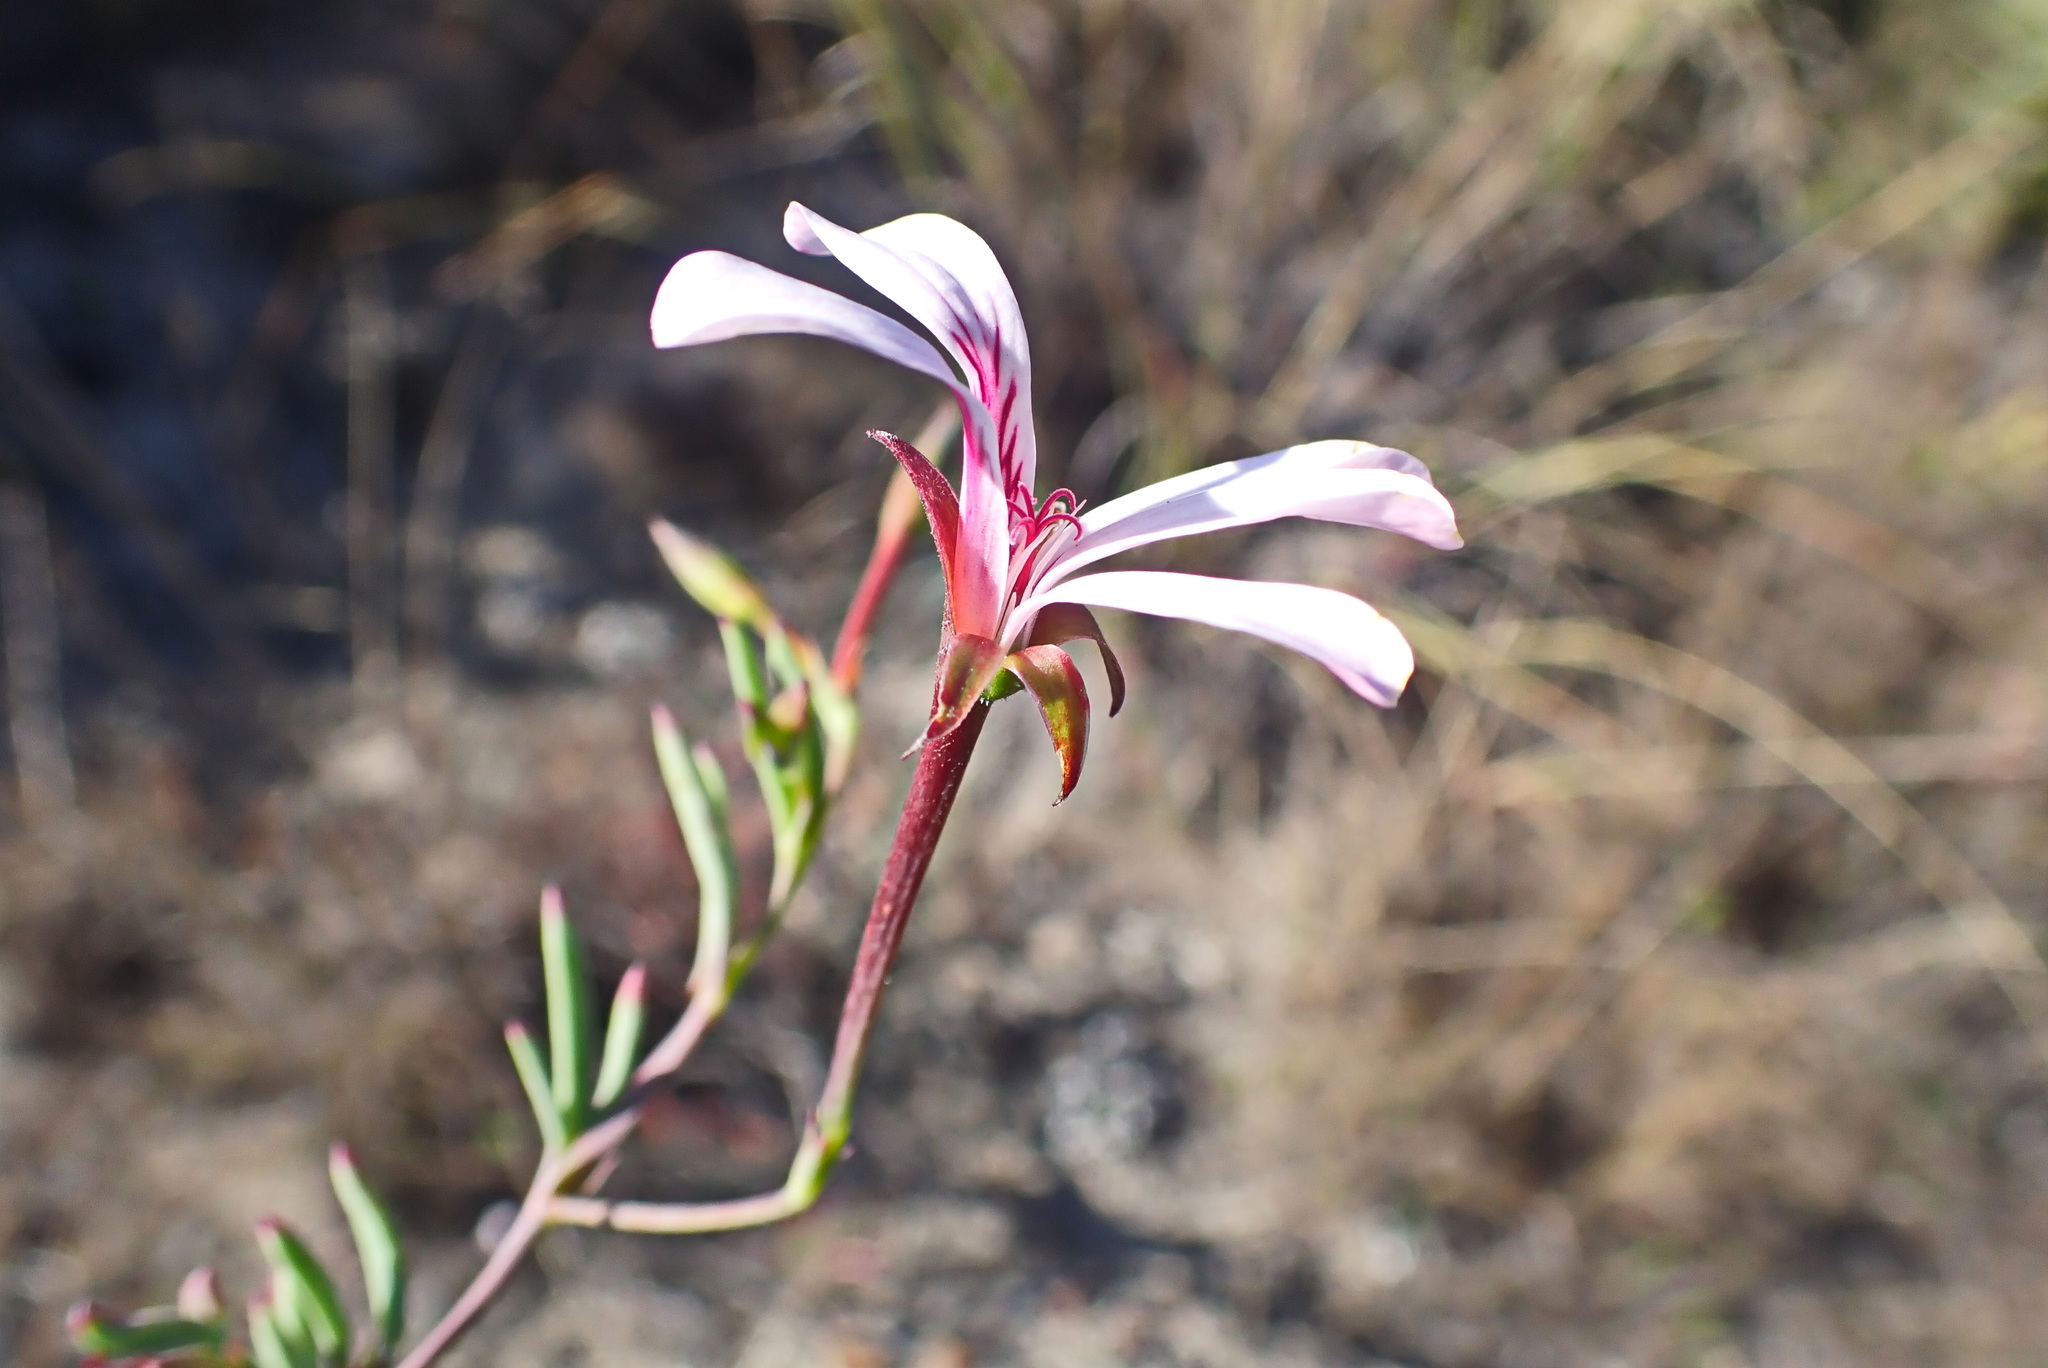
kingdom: Plantae
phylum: Tracheophyta
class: Magnoliopsida
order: Geraniales
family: Geraniaceae
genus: Pelargonium
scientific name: Pelargonium laevigatum
